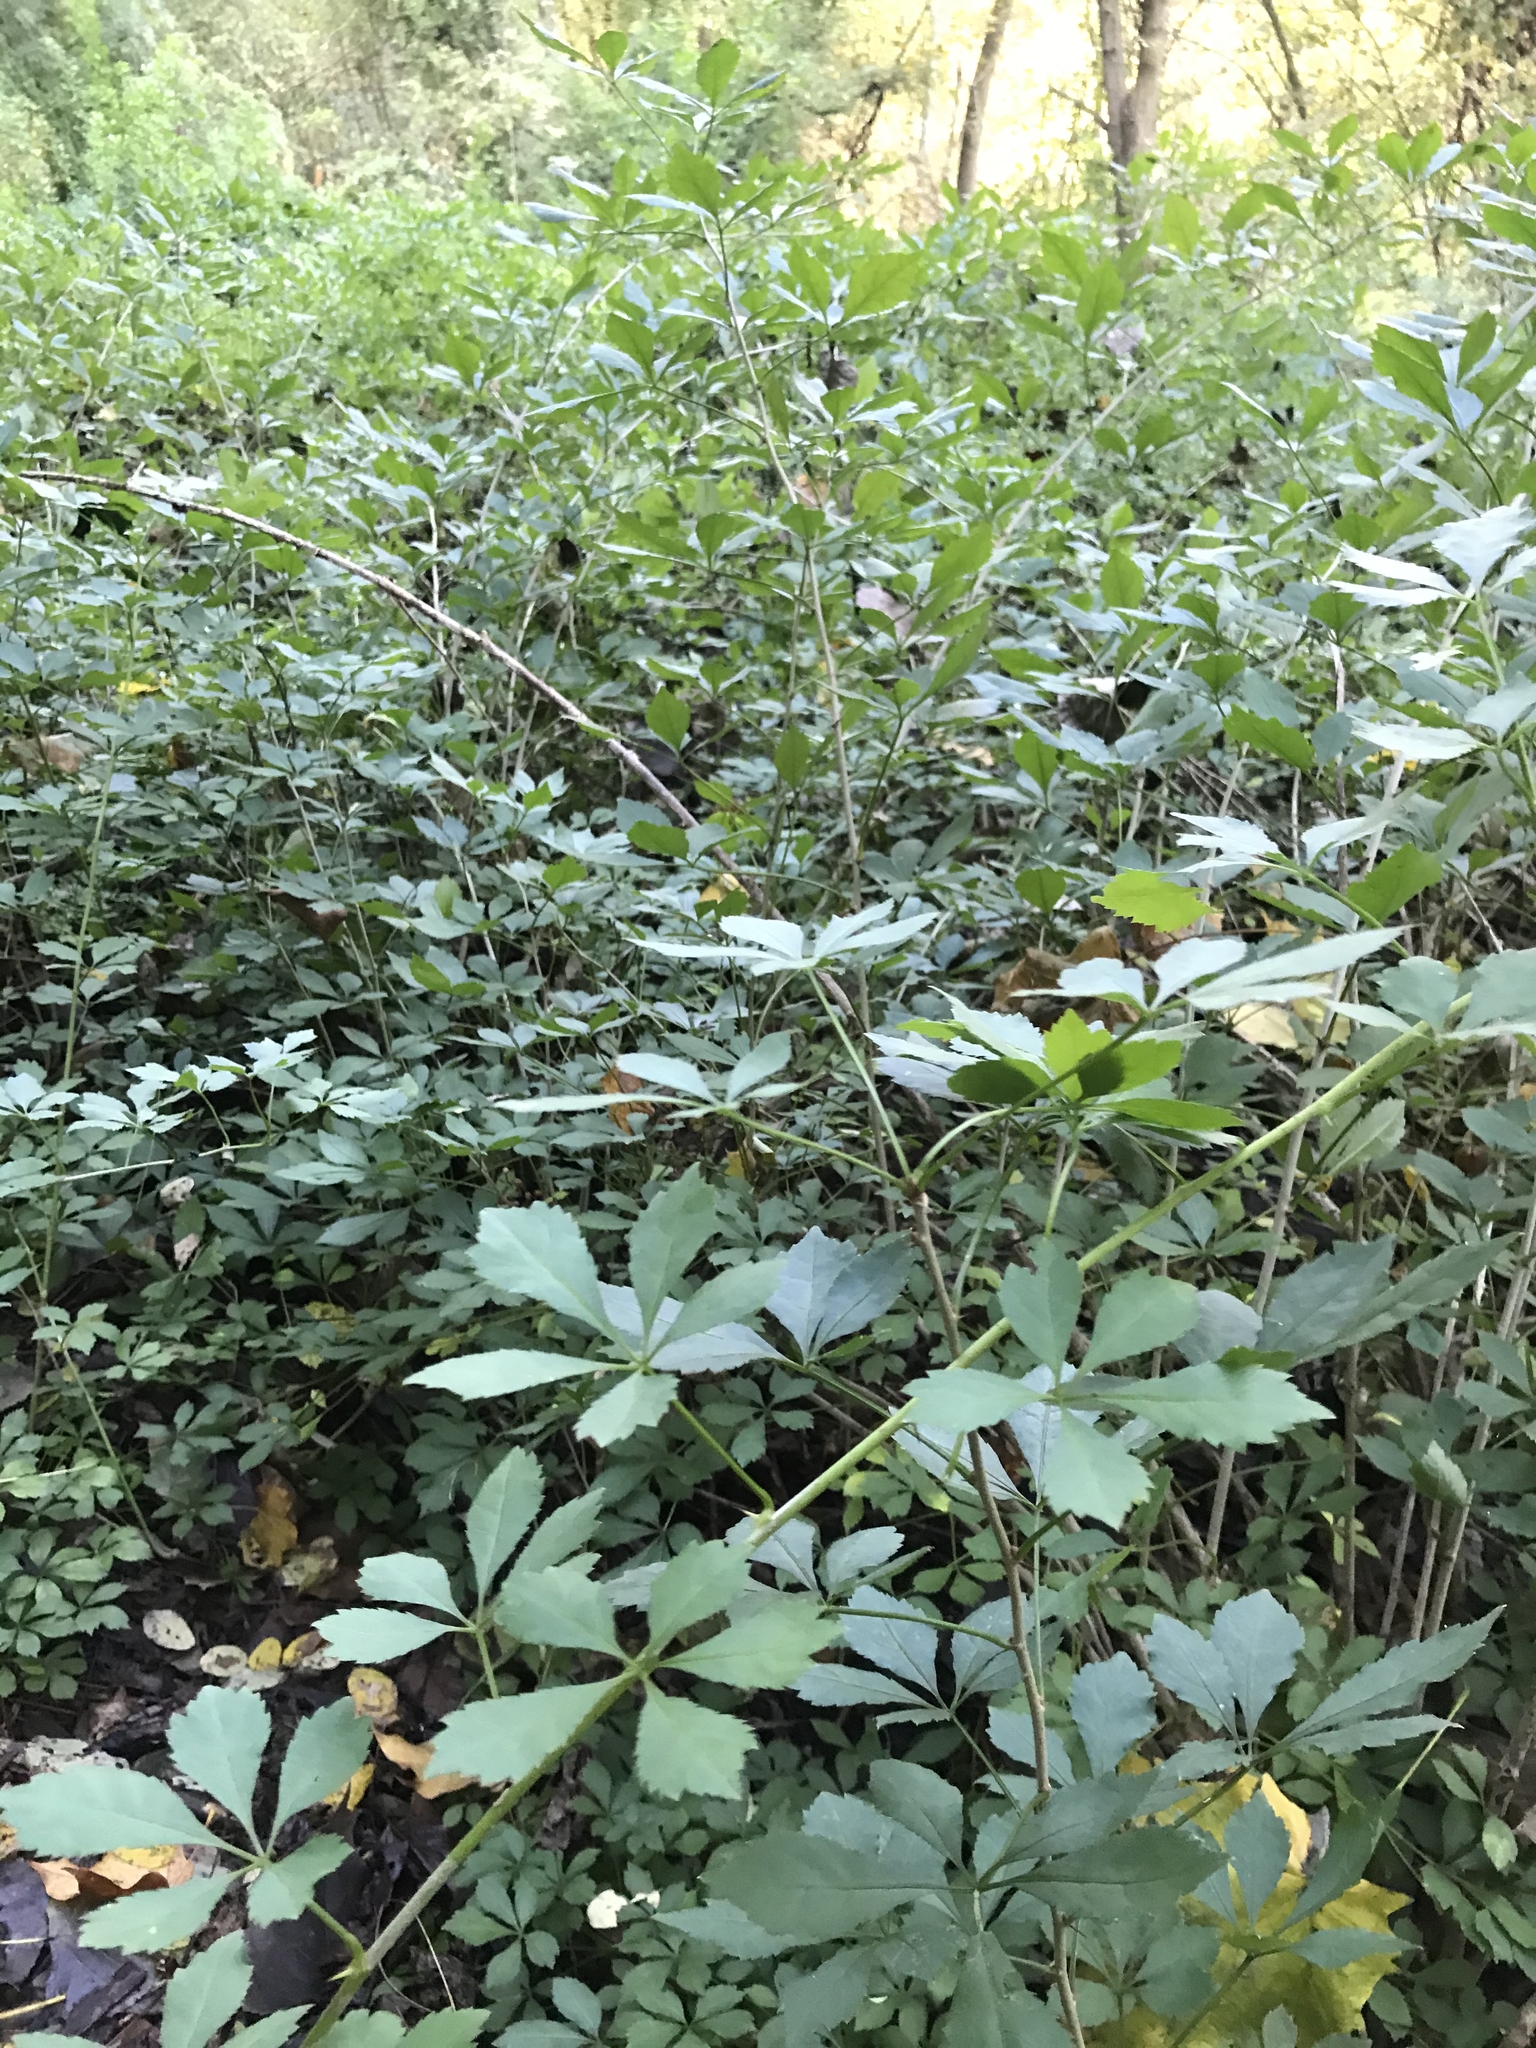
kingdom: Plantae
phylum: Tracheophyta
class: Magnoliopsida
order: Apiales
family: Araliaceae
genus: Eleutherococcus
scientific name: Eleutherococcus sieboldianus
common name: Ginseng
